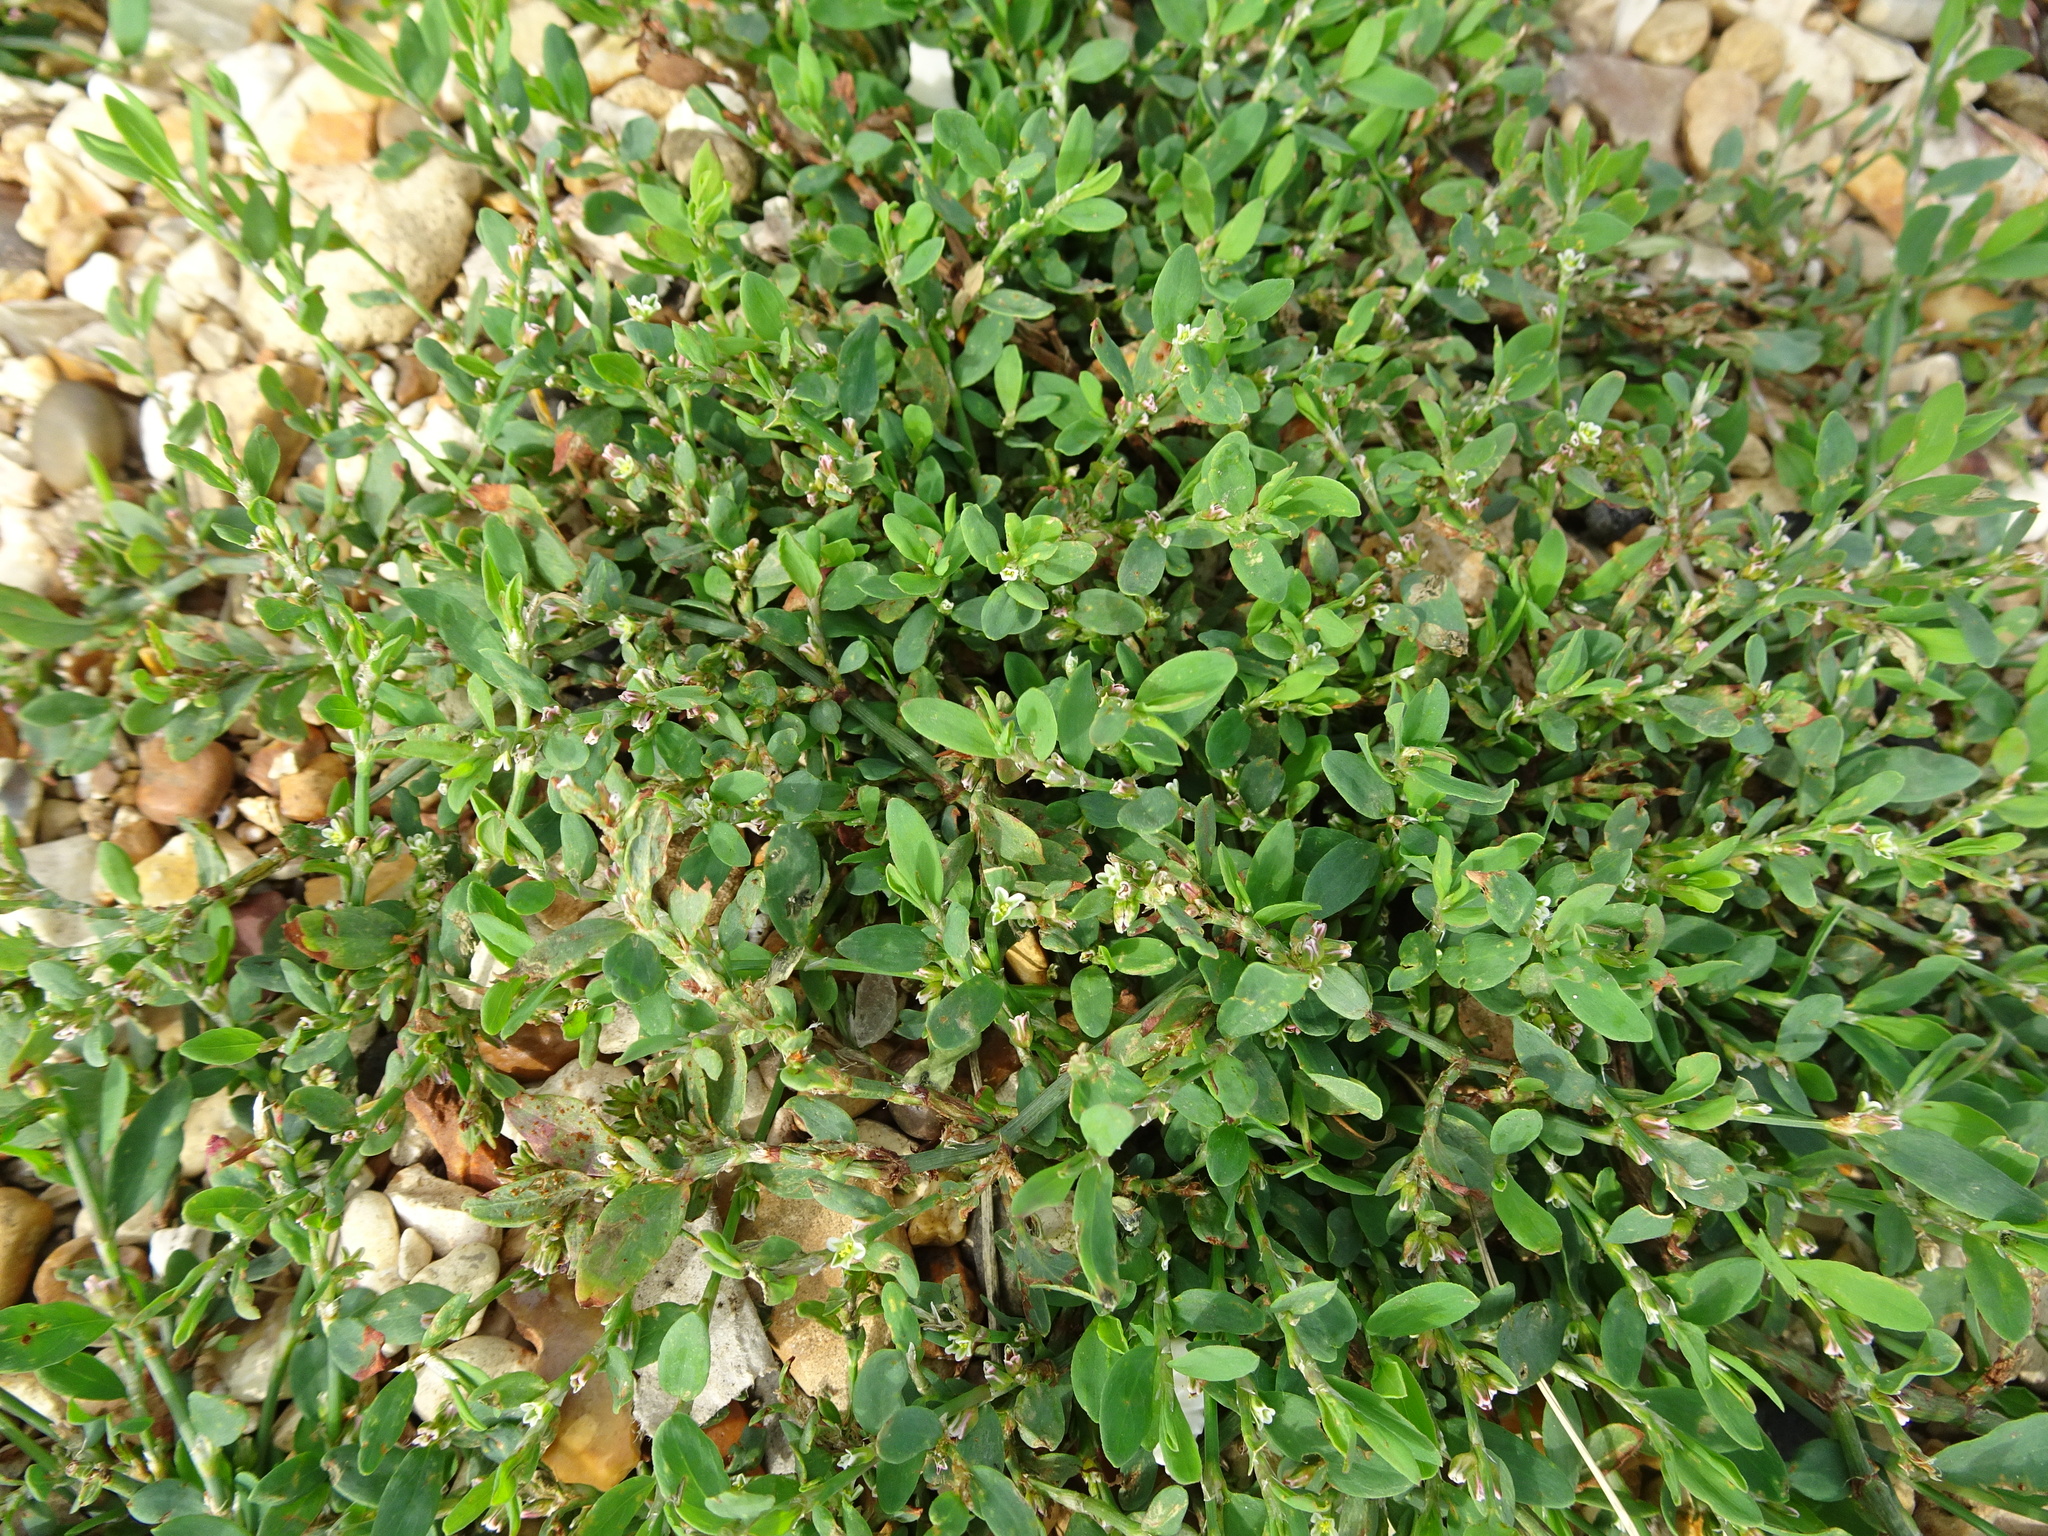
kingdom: Plantae
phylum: Tracheophyta
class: Magnoliopsida
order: Caryophyllales
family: Polygonaceae
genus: Polygonum
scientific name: Polygonum aviculare
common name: Prostrate knotweed
